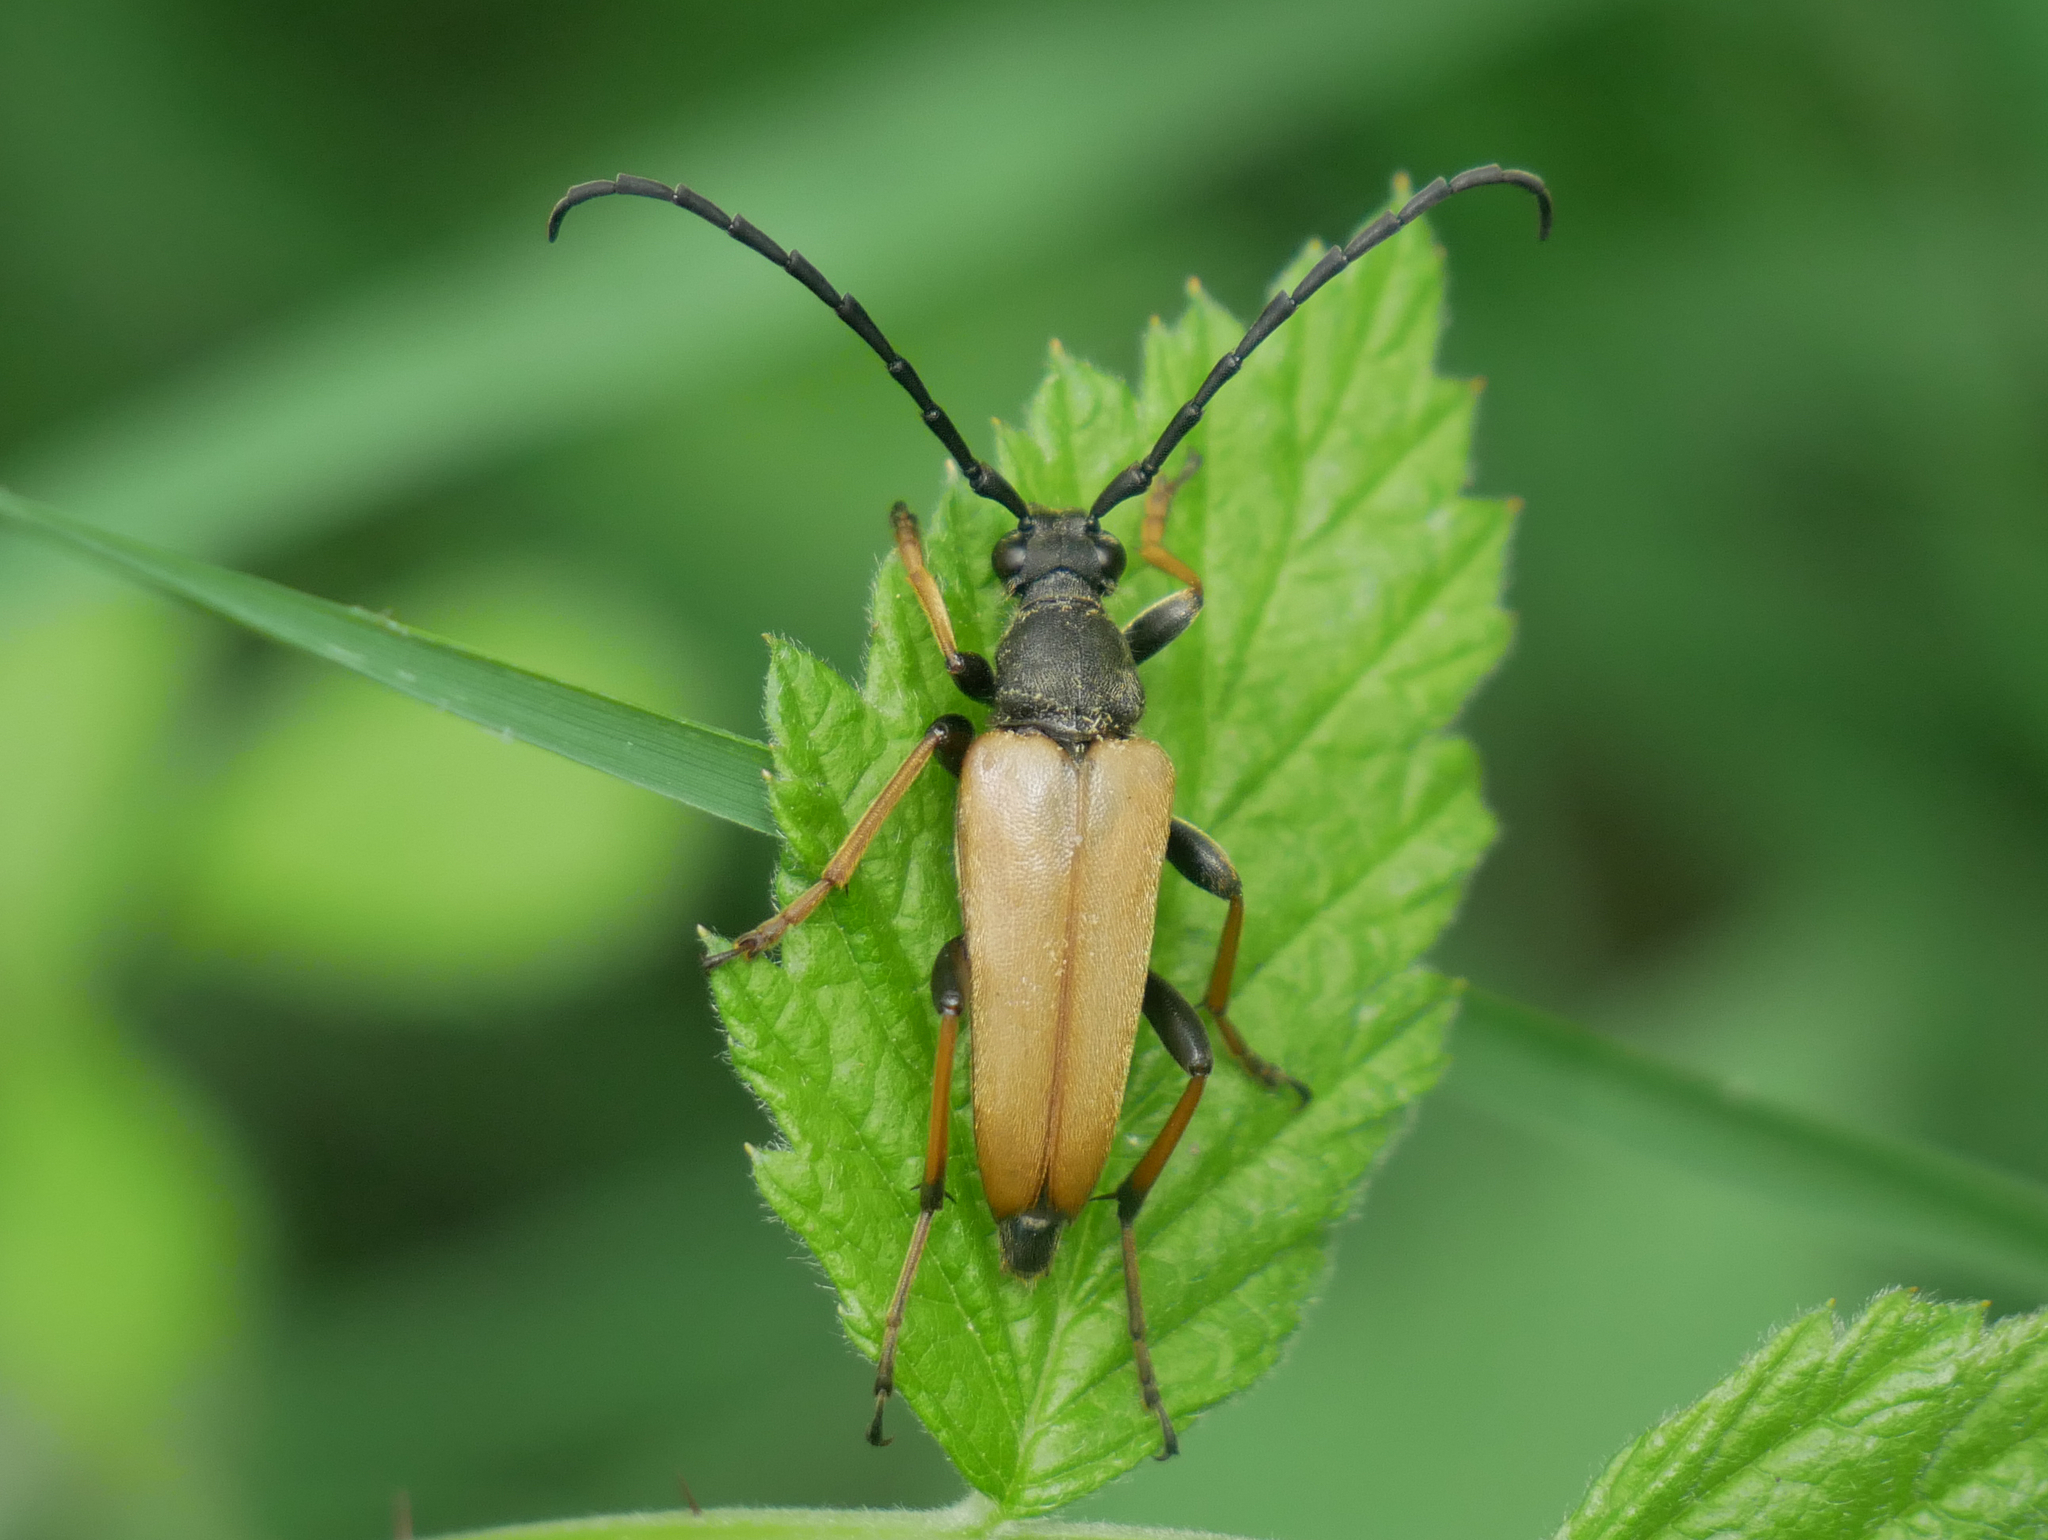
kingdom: Animalia
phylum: Arthropoda
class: Insecta
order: Coleoptera
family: Cerambycidae
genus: Stictoleptura
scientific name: Stictoleptura rubra
